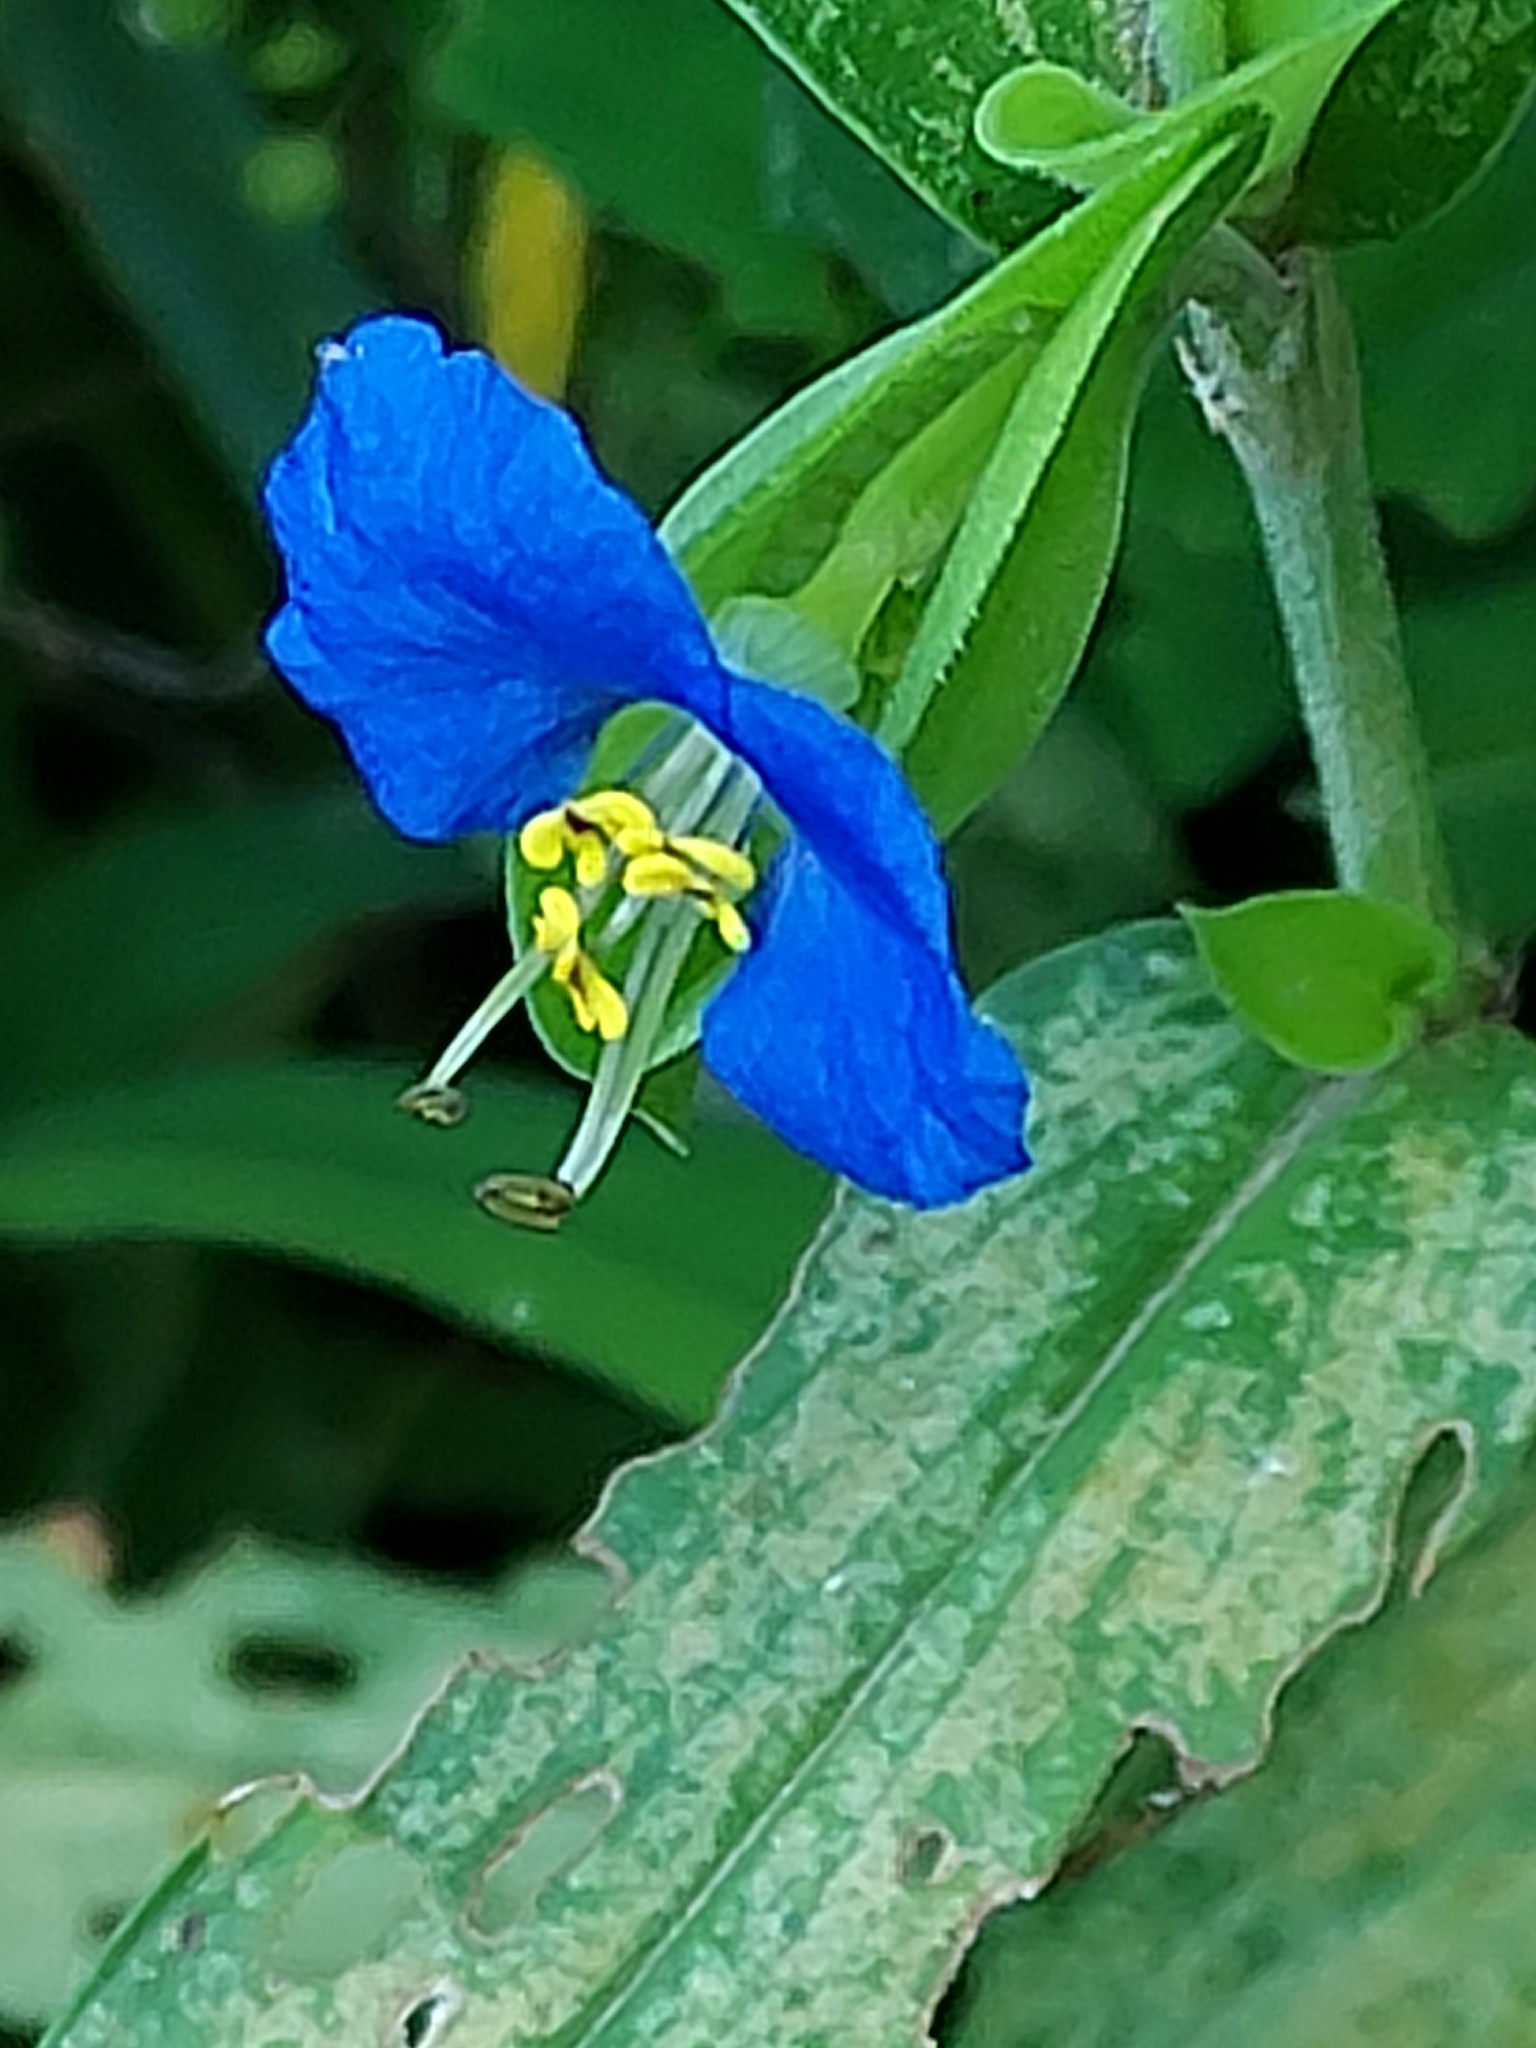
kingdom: Plantae
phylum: Tracheophyta
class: Liliopsida
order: Commelinales
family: Commelinaceae
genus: Commelina
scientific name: Commelina communis
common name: Asiatic dayflower
